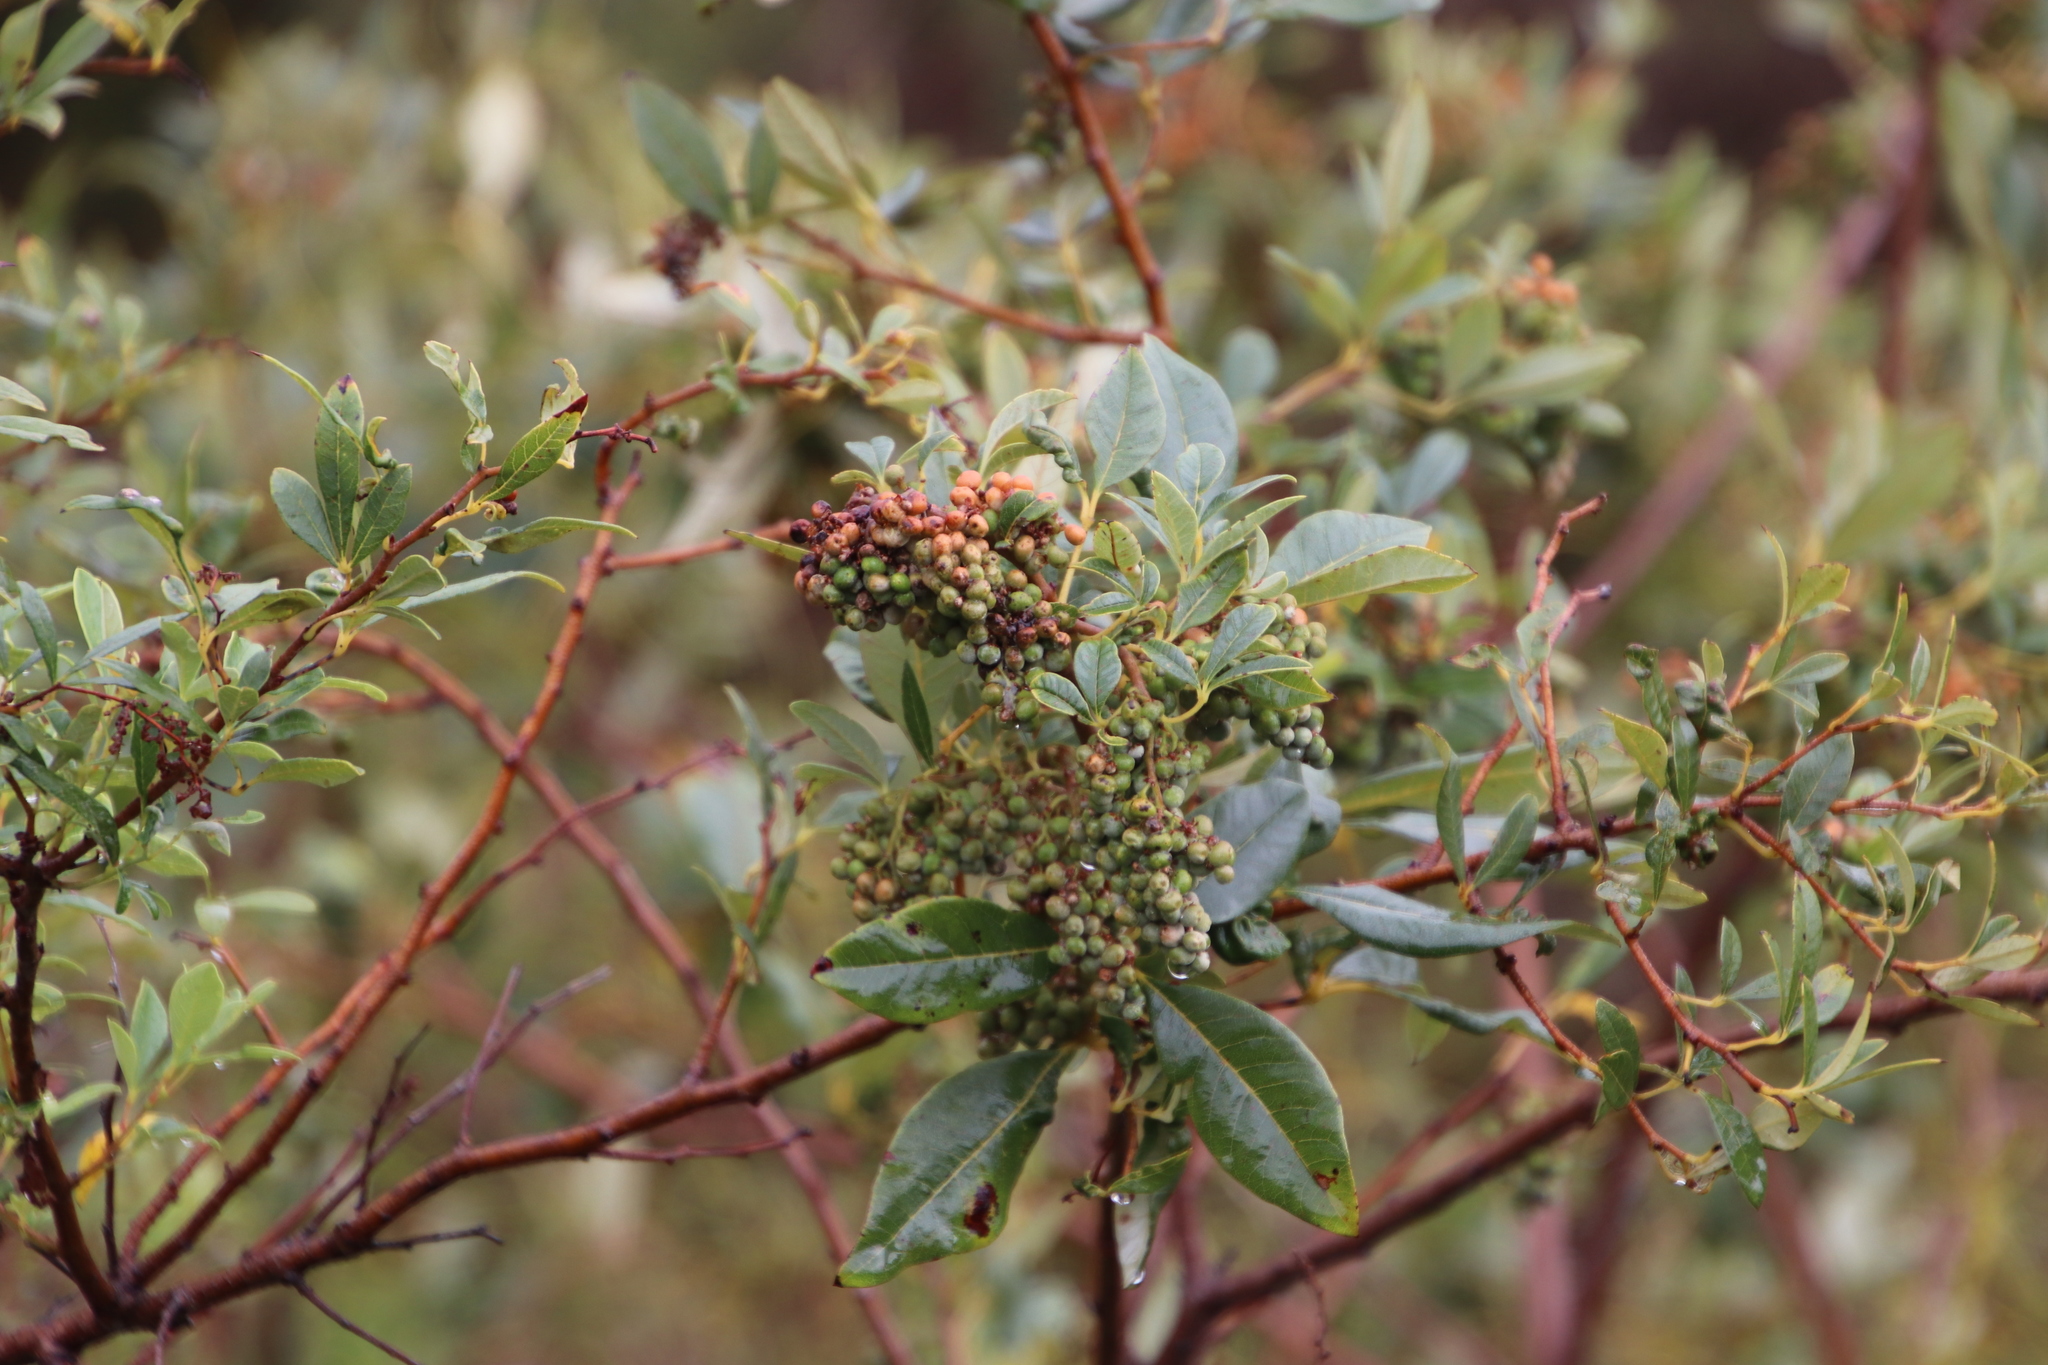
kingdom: Plantae
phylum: Tracheophyta
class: Magnoliopsida
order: Sapindales
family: Anacardiaceae
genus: Searsia
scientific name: Searsia tomentosa
